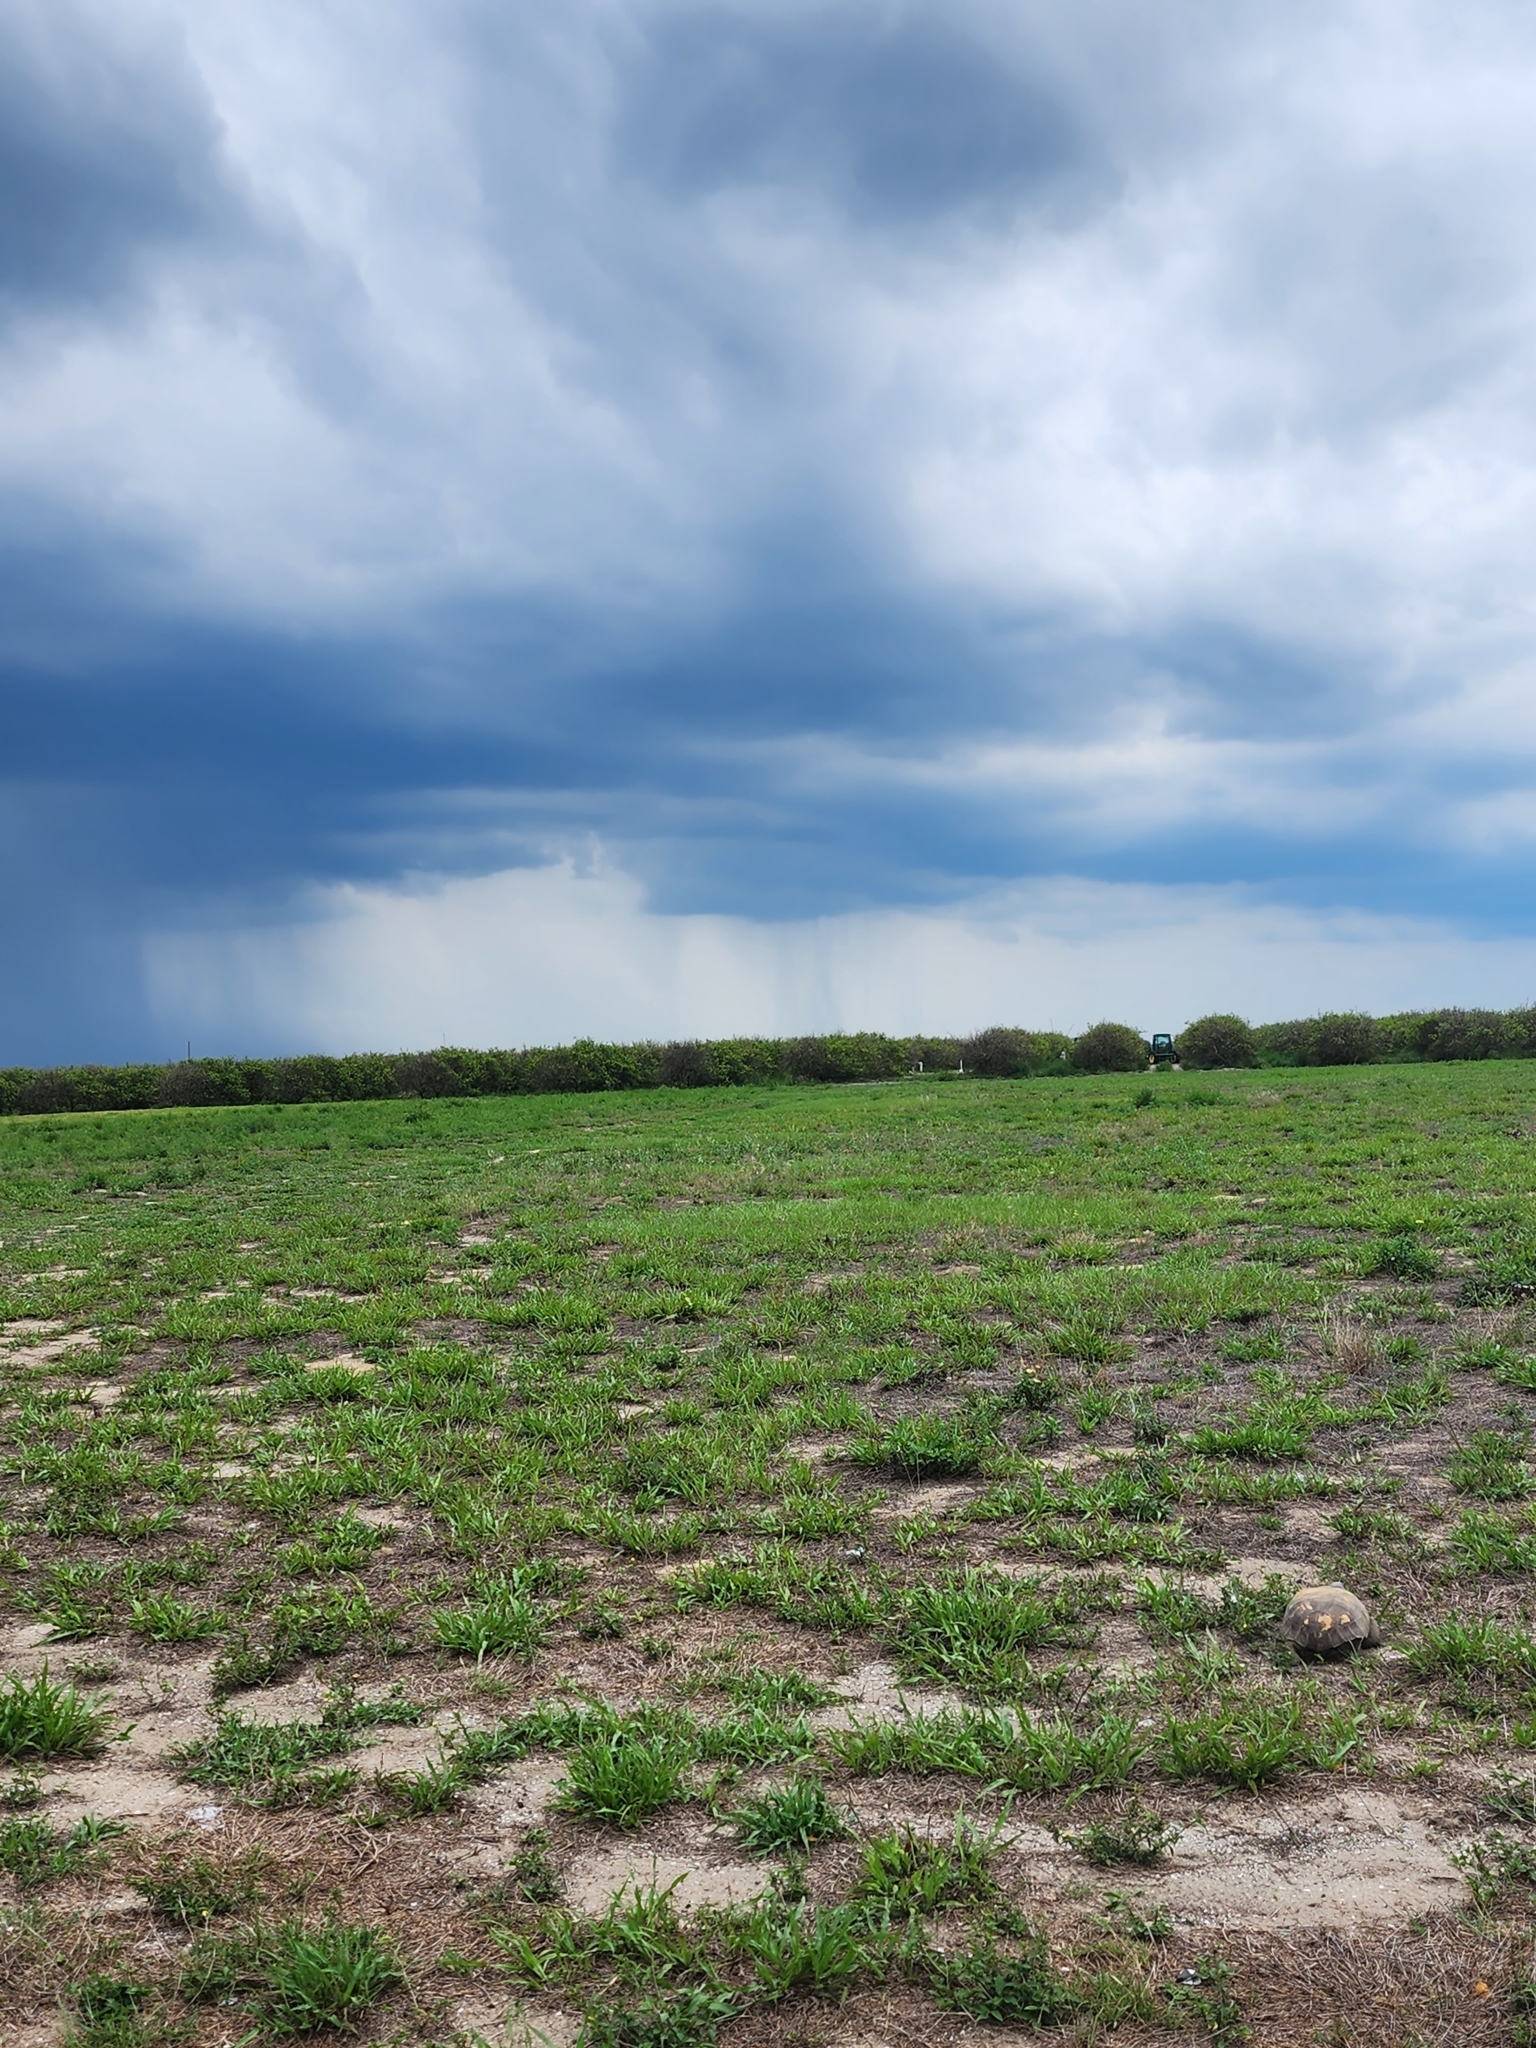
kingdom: Animalia
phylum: Chordata
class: Testudines
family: Testudinidae
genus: Gopherus
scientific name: Gopherus polyphemus
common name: Florida gopher tortoise
